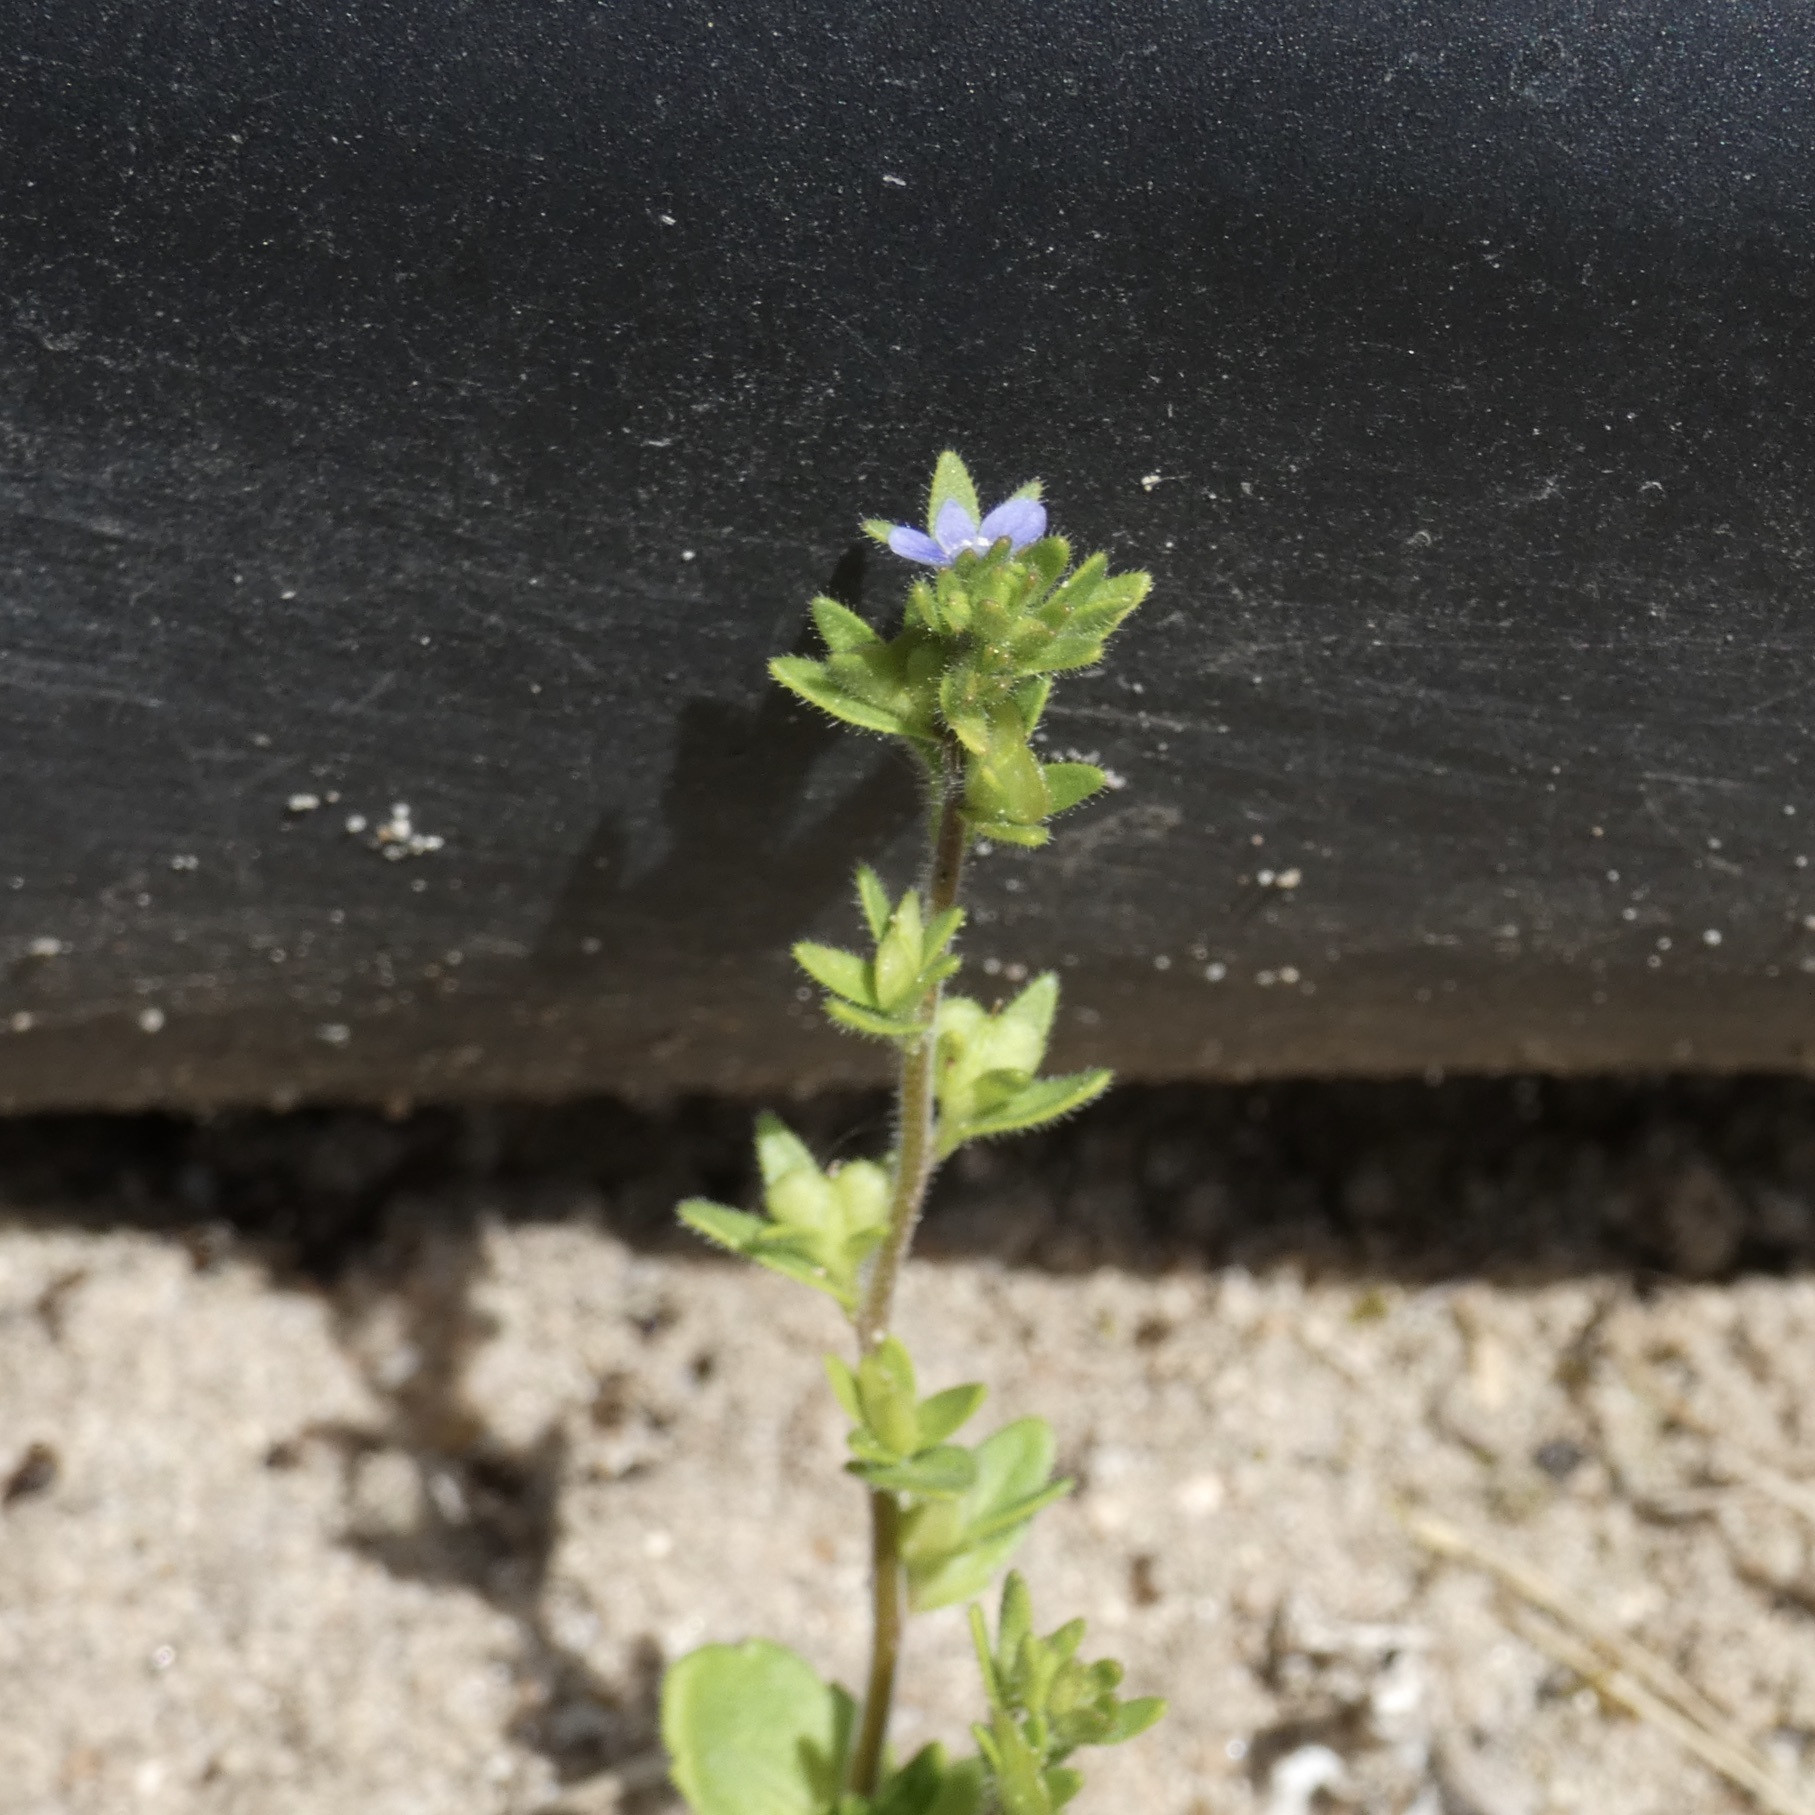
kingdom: Plantae
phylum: Tracheophyta
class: Magnoliopsida
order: Lamiales
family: Plantaginaceae
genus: Veronica
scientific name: Veronica arvensis
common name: Corn speedwell
